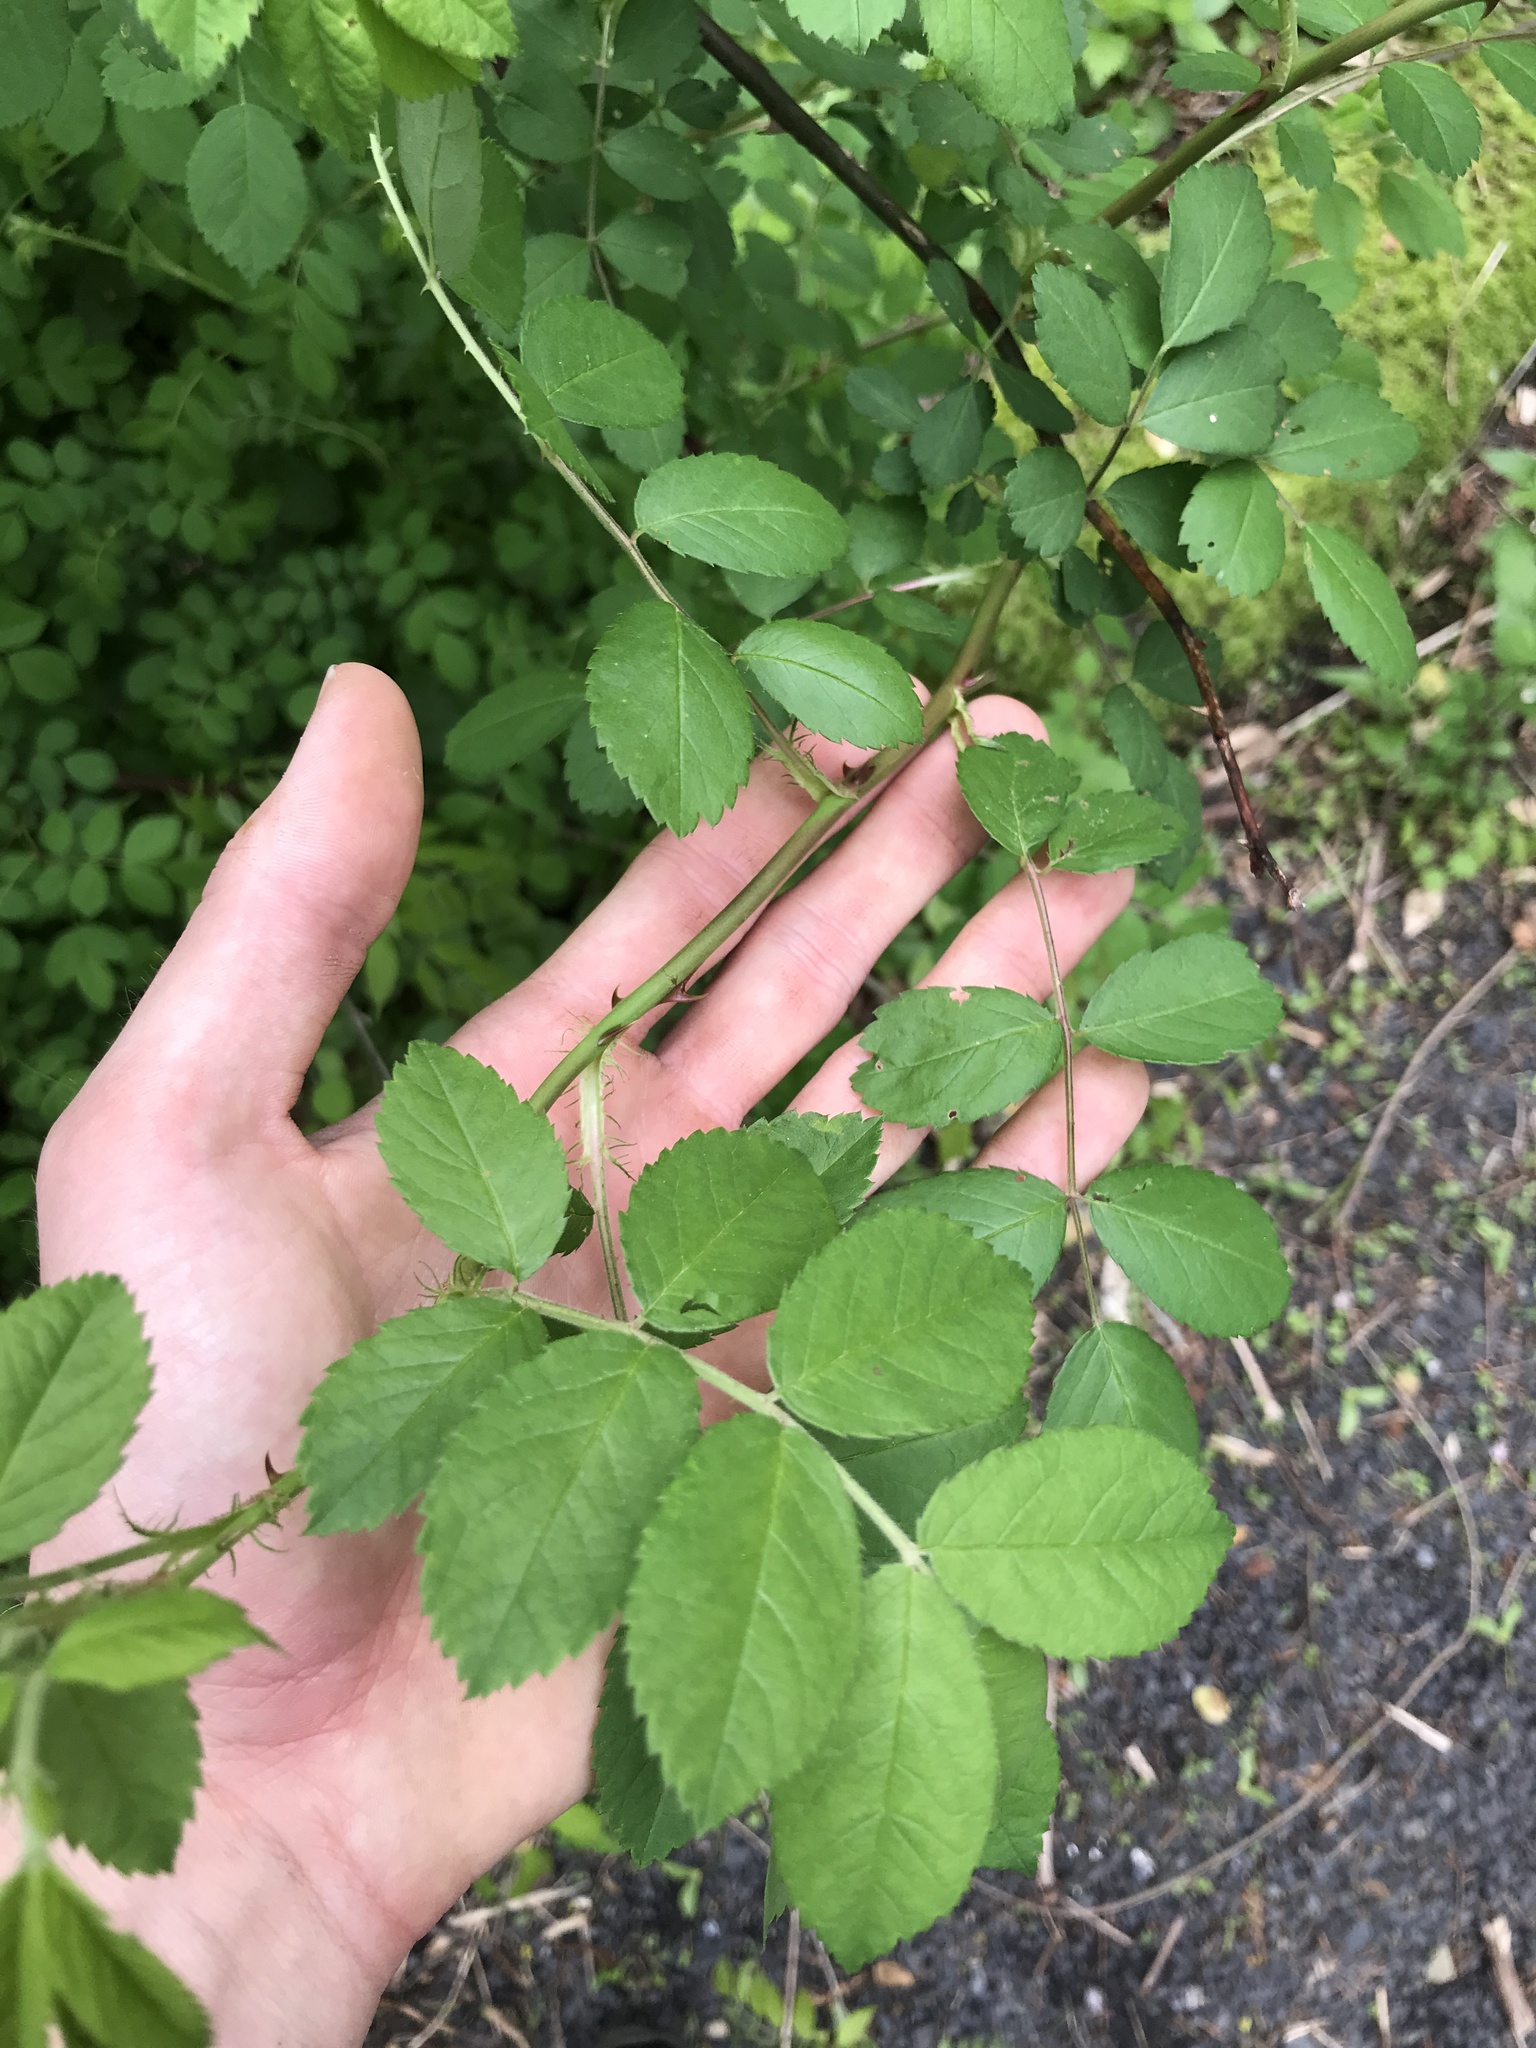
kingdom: Plantae
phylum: Tracheophyta
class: Magnoliopsida
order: Rosales
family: Rosaceae
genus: Rosa
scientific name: Rosa multiflora
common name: Multiflora rose
